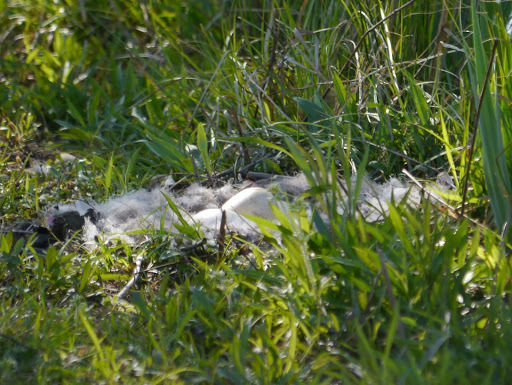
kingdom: Animalia
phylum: Chordata
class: Aves
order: Anseriformes
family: Anatidae
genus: Branta
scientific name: Branta canadensis
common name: Canada goose
